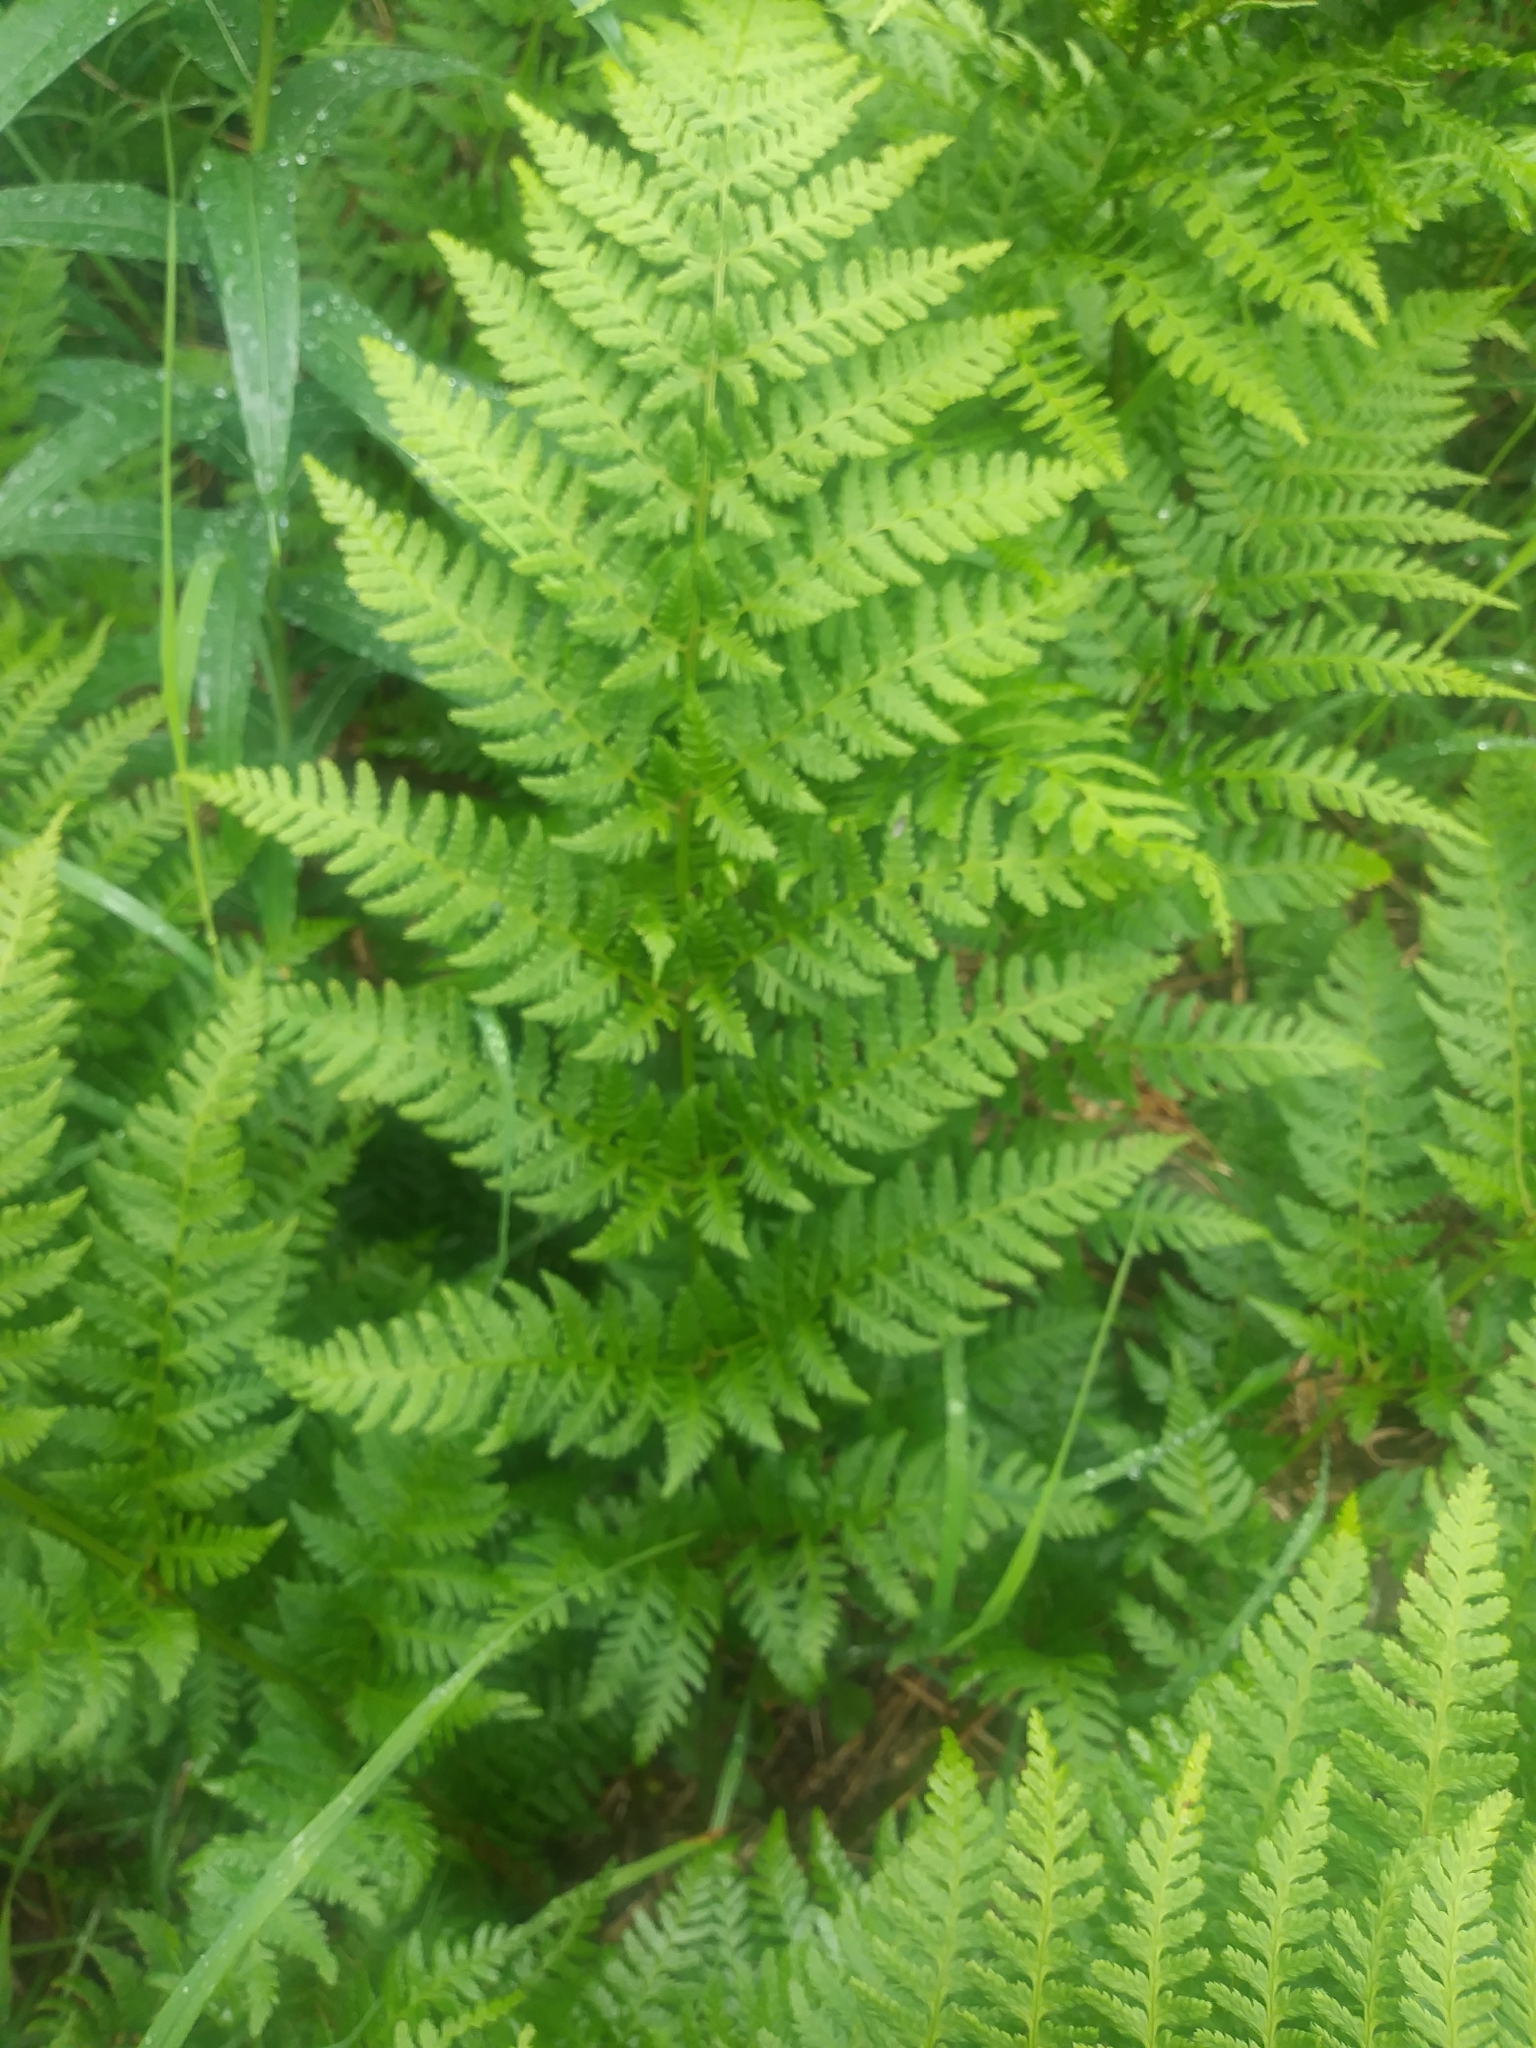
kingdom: Plantae
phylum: Tracheophyta
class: Polypodiopsida
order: Polypodiales
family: Dryopteridaceae
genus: Dryopteris
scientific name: Dryopteris expansa
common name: Northern buckler fern
